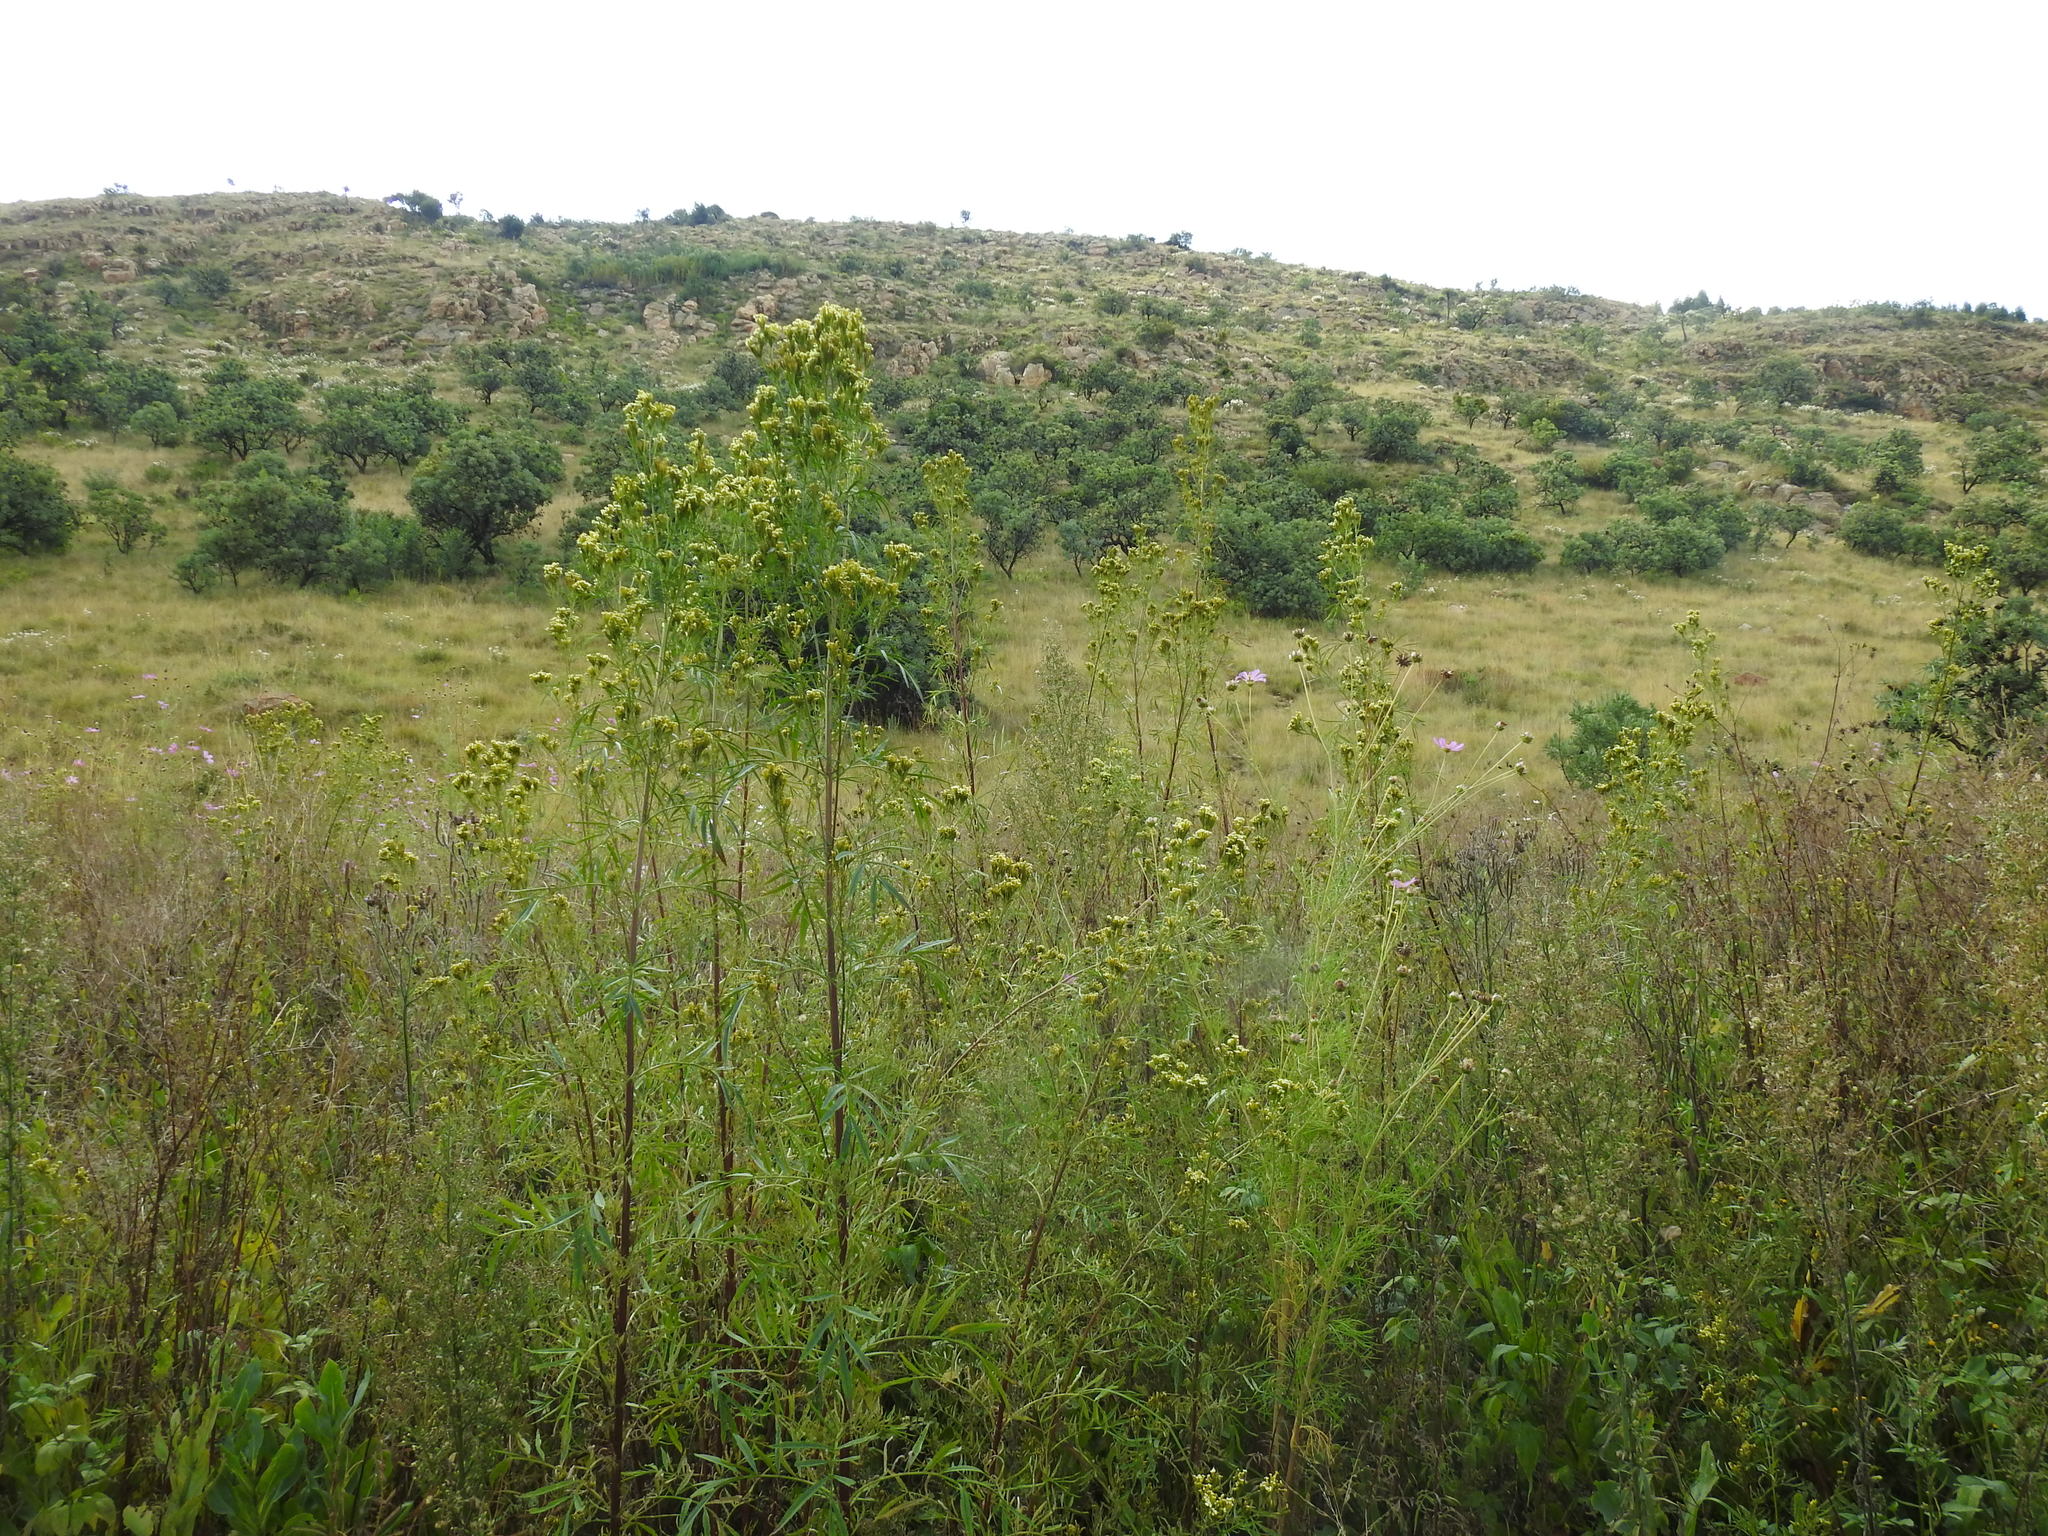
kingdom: Plantae
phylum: Tracheophyta
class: Magnoliopsida
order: Asterales
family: Asteraceae
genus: Tagetes
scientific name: Tagetes minuta
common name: Muster john henry
